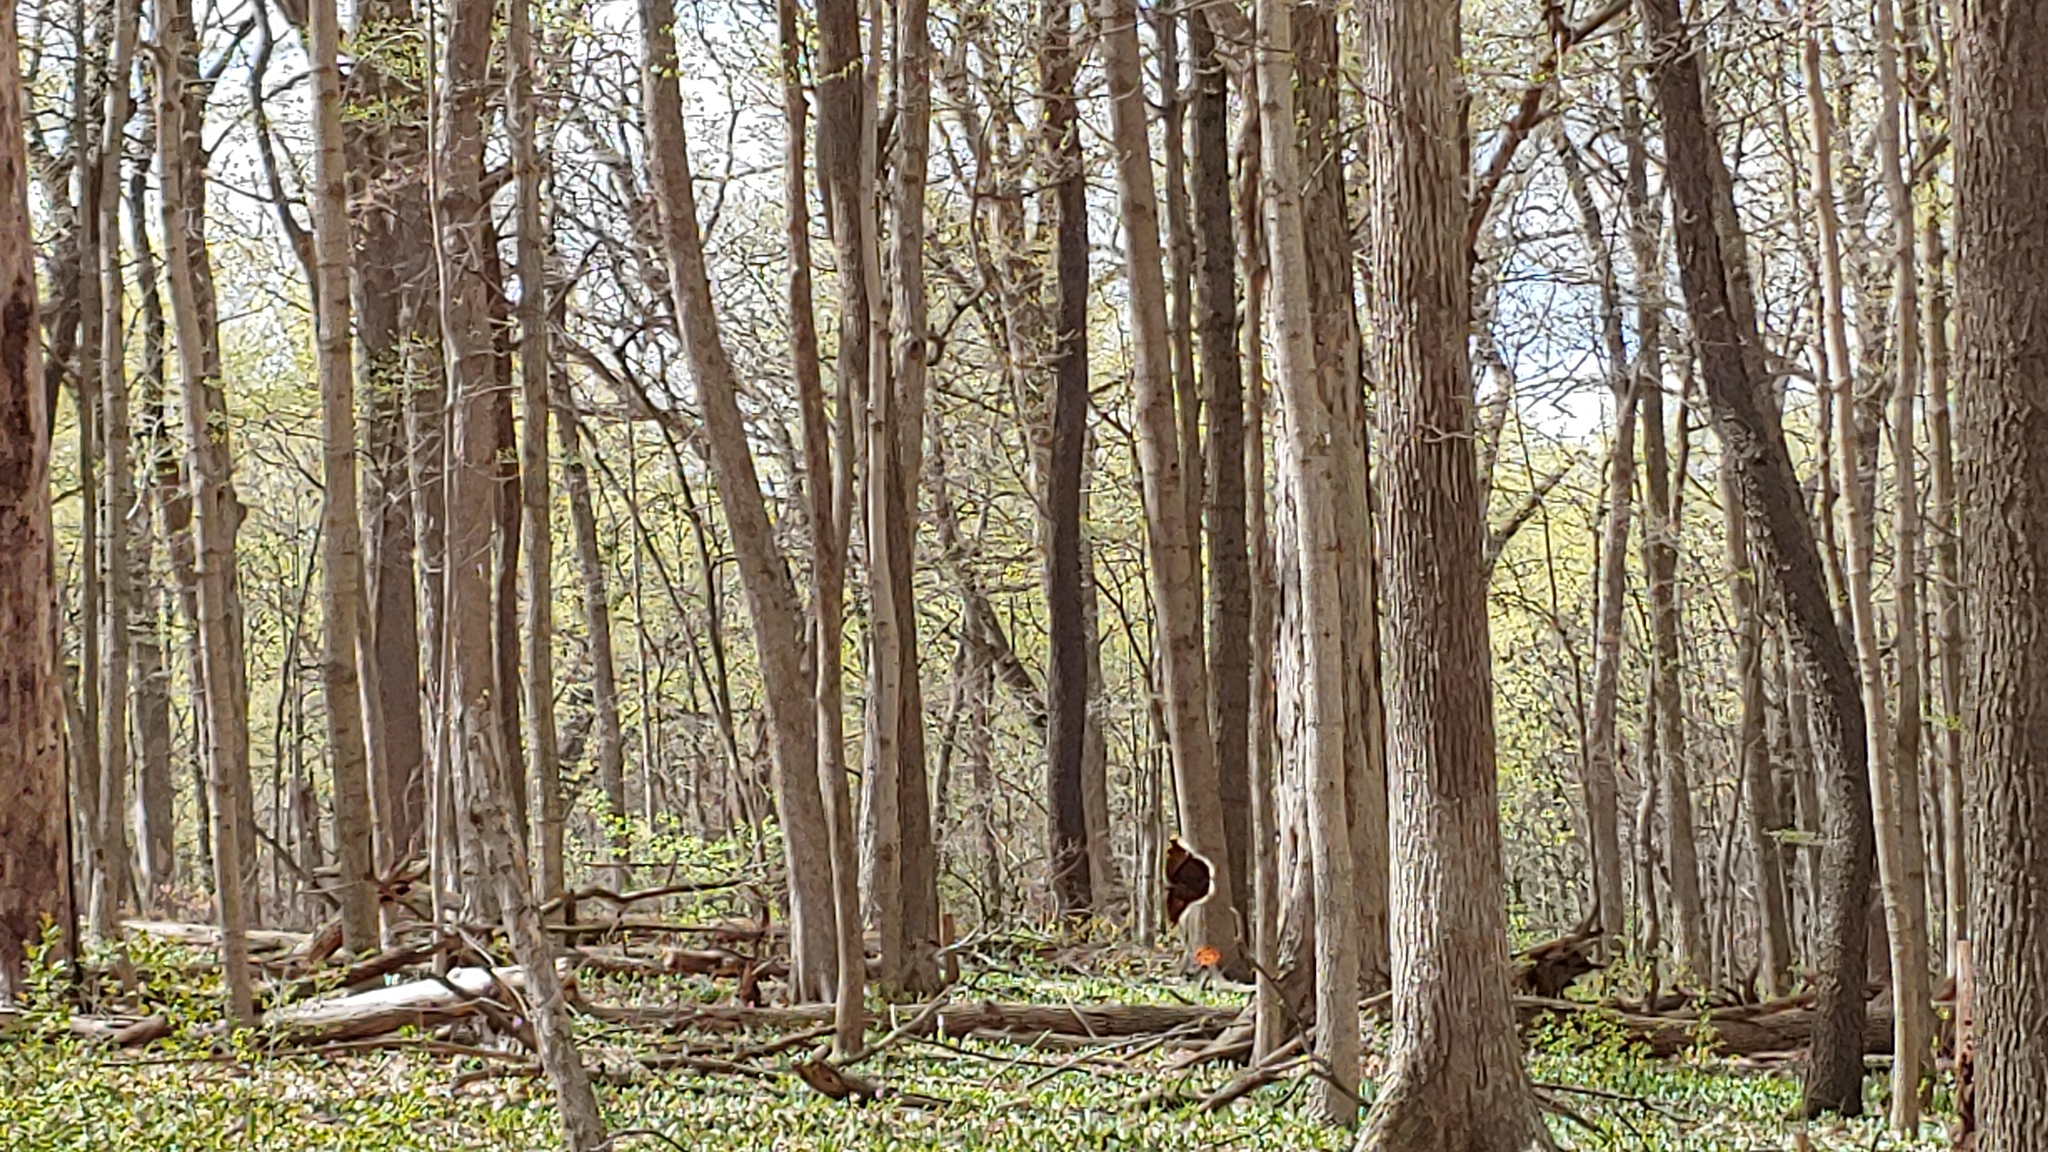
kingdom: Animalia
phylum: Arthropoda
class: Insecta
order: Lepidoptera
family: Nymphalidae
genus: Nymphalis
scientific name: Nymphalis antiopa
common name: Camberwell beauty
